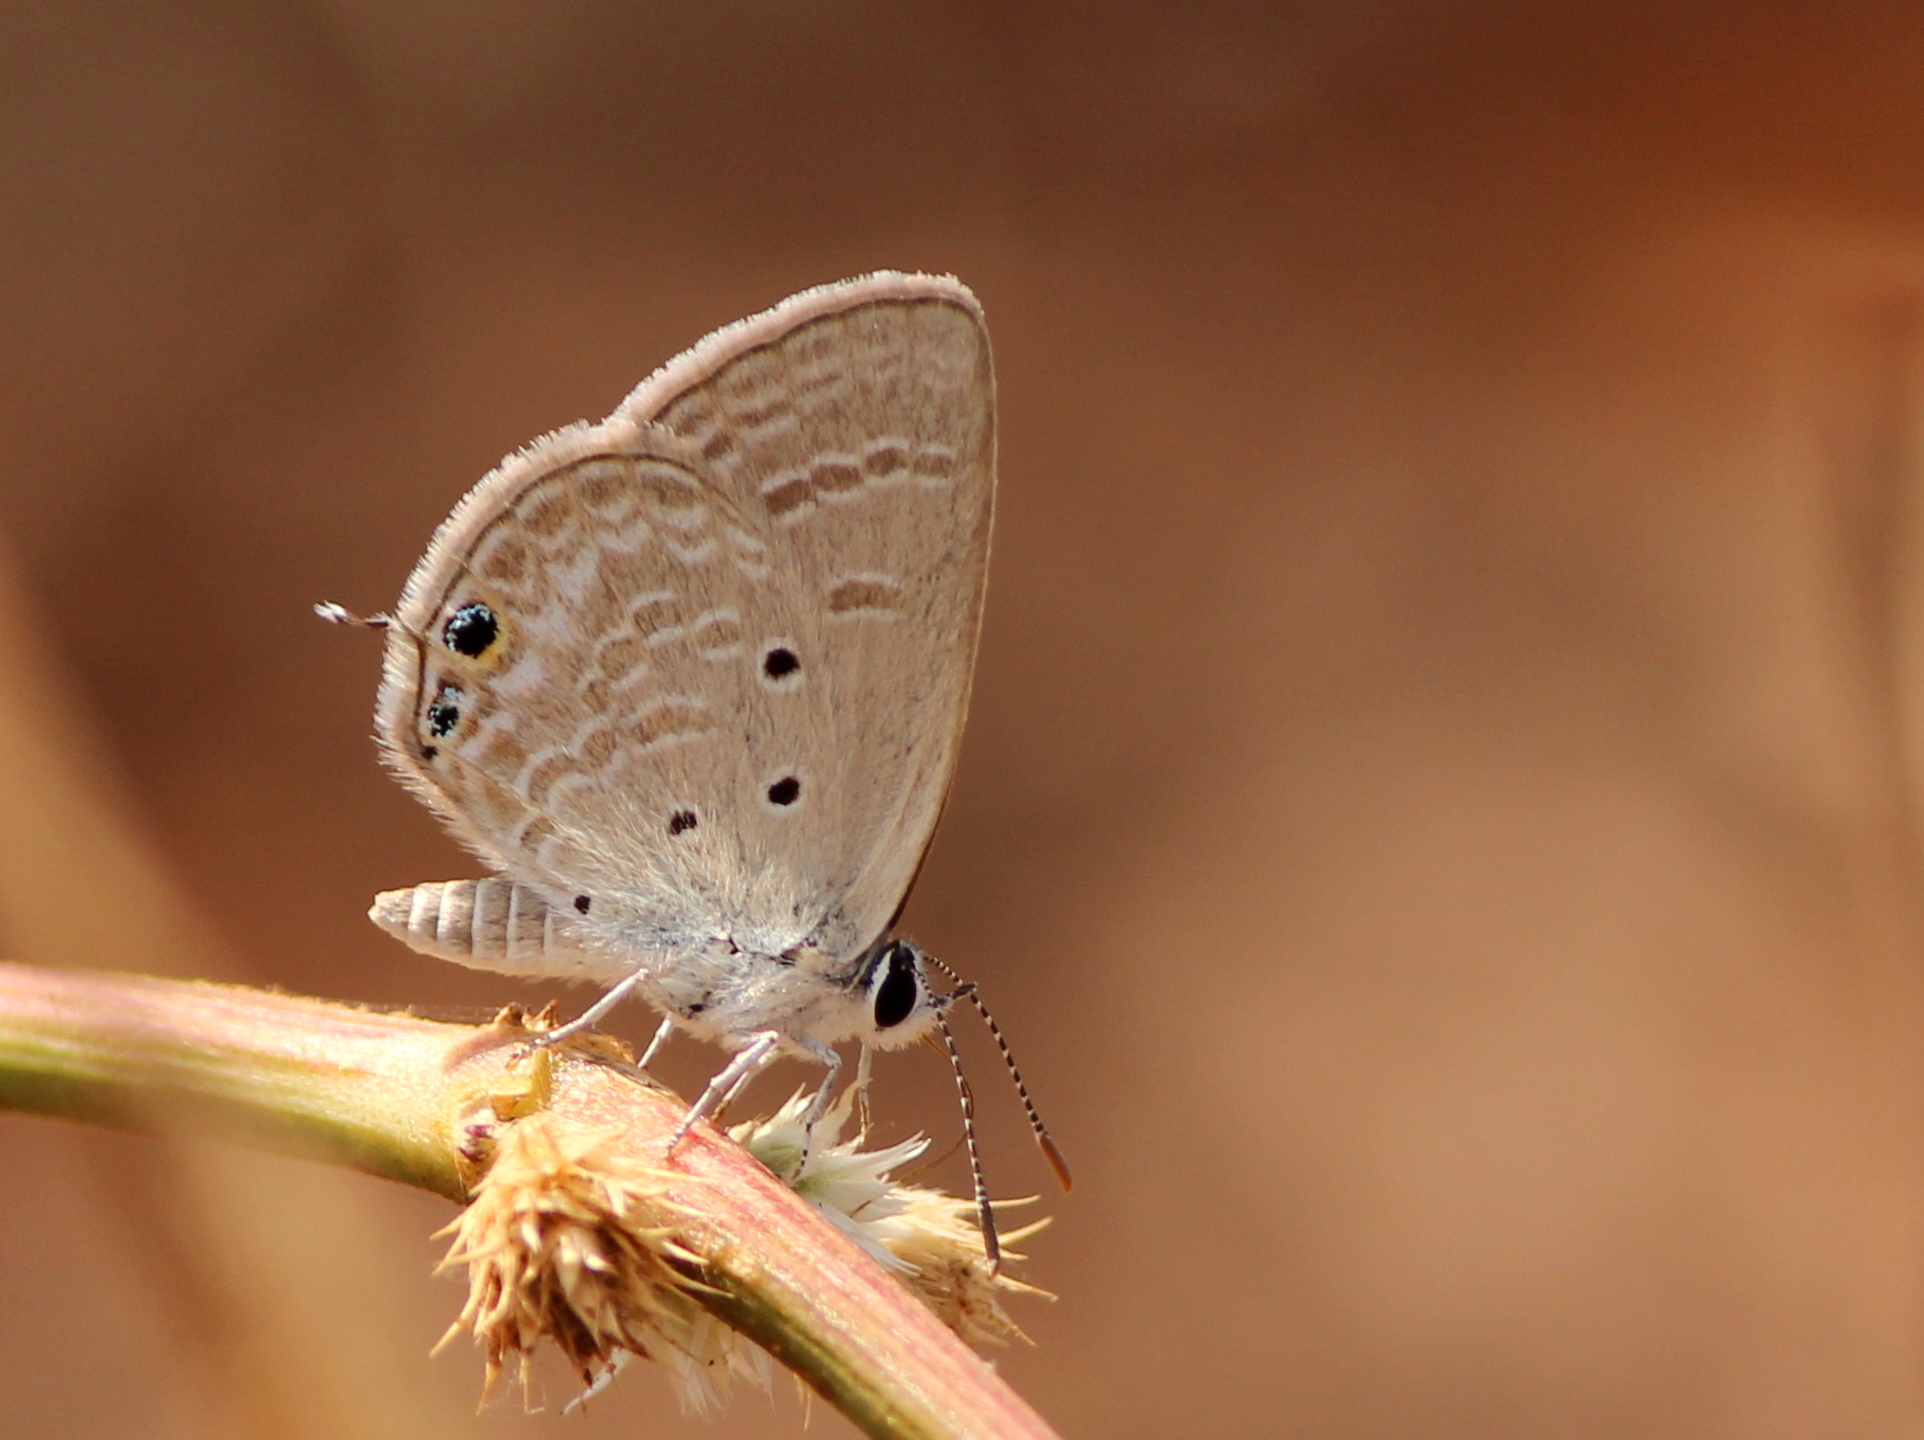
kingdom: Animalia
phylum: Arthropoda
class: Insecta
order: Lepidoptera
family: Lycaenidae
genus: Chilades
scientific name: Chilades parrhasius
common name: Small cupid
